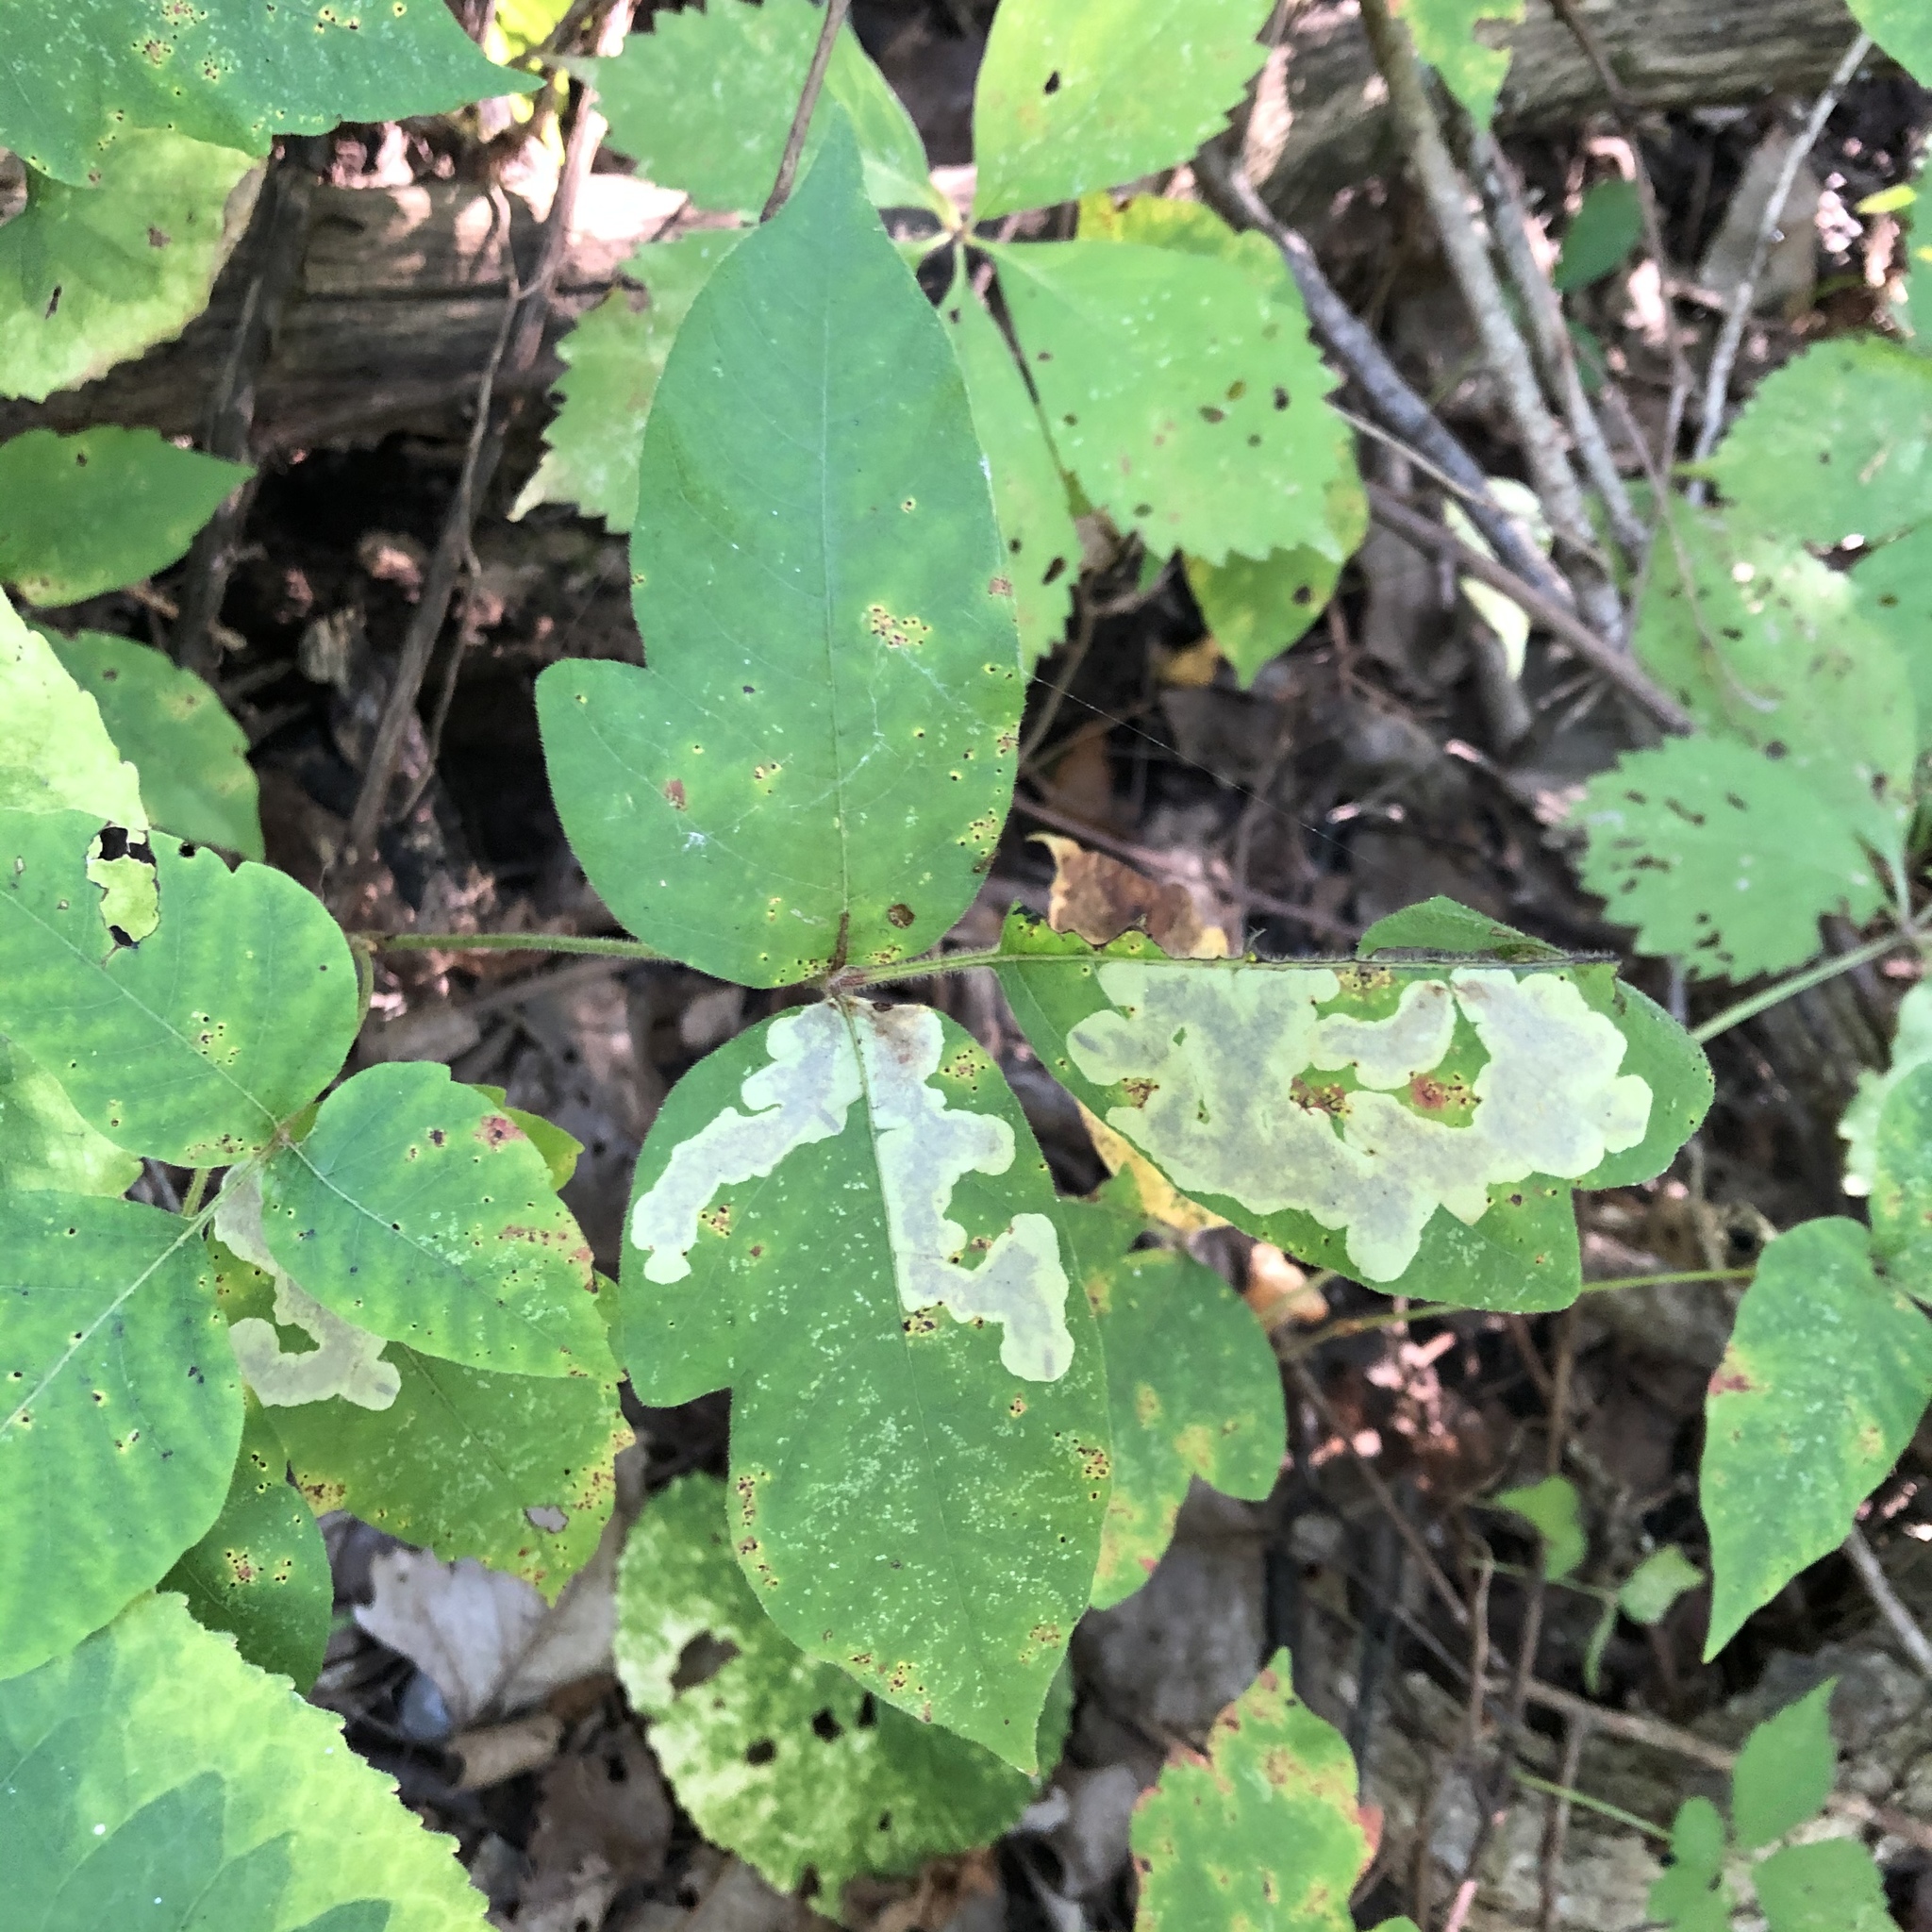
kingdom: Animalia
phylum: Arthropoda
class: Insecta
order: Lepidoptera
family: Gracillariidae
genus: Cameraria
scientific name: Cameraria guttifinitella
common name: Poison ivy leaf-miner moth
